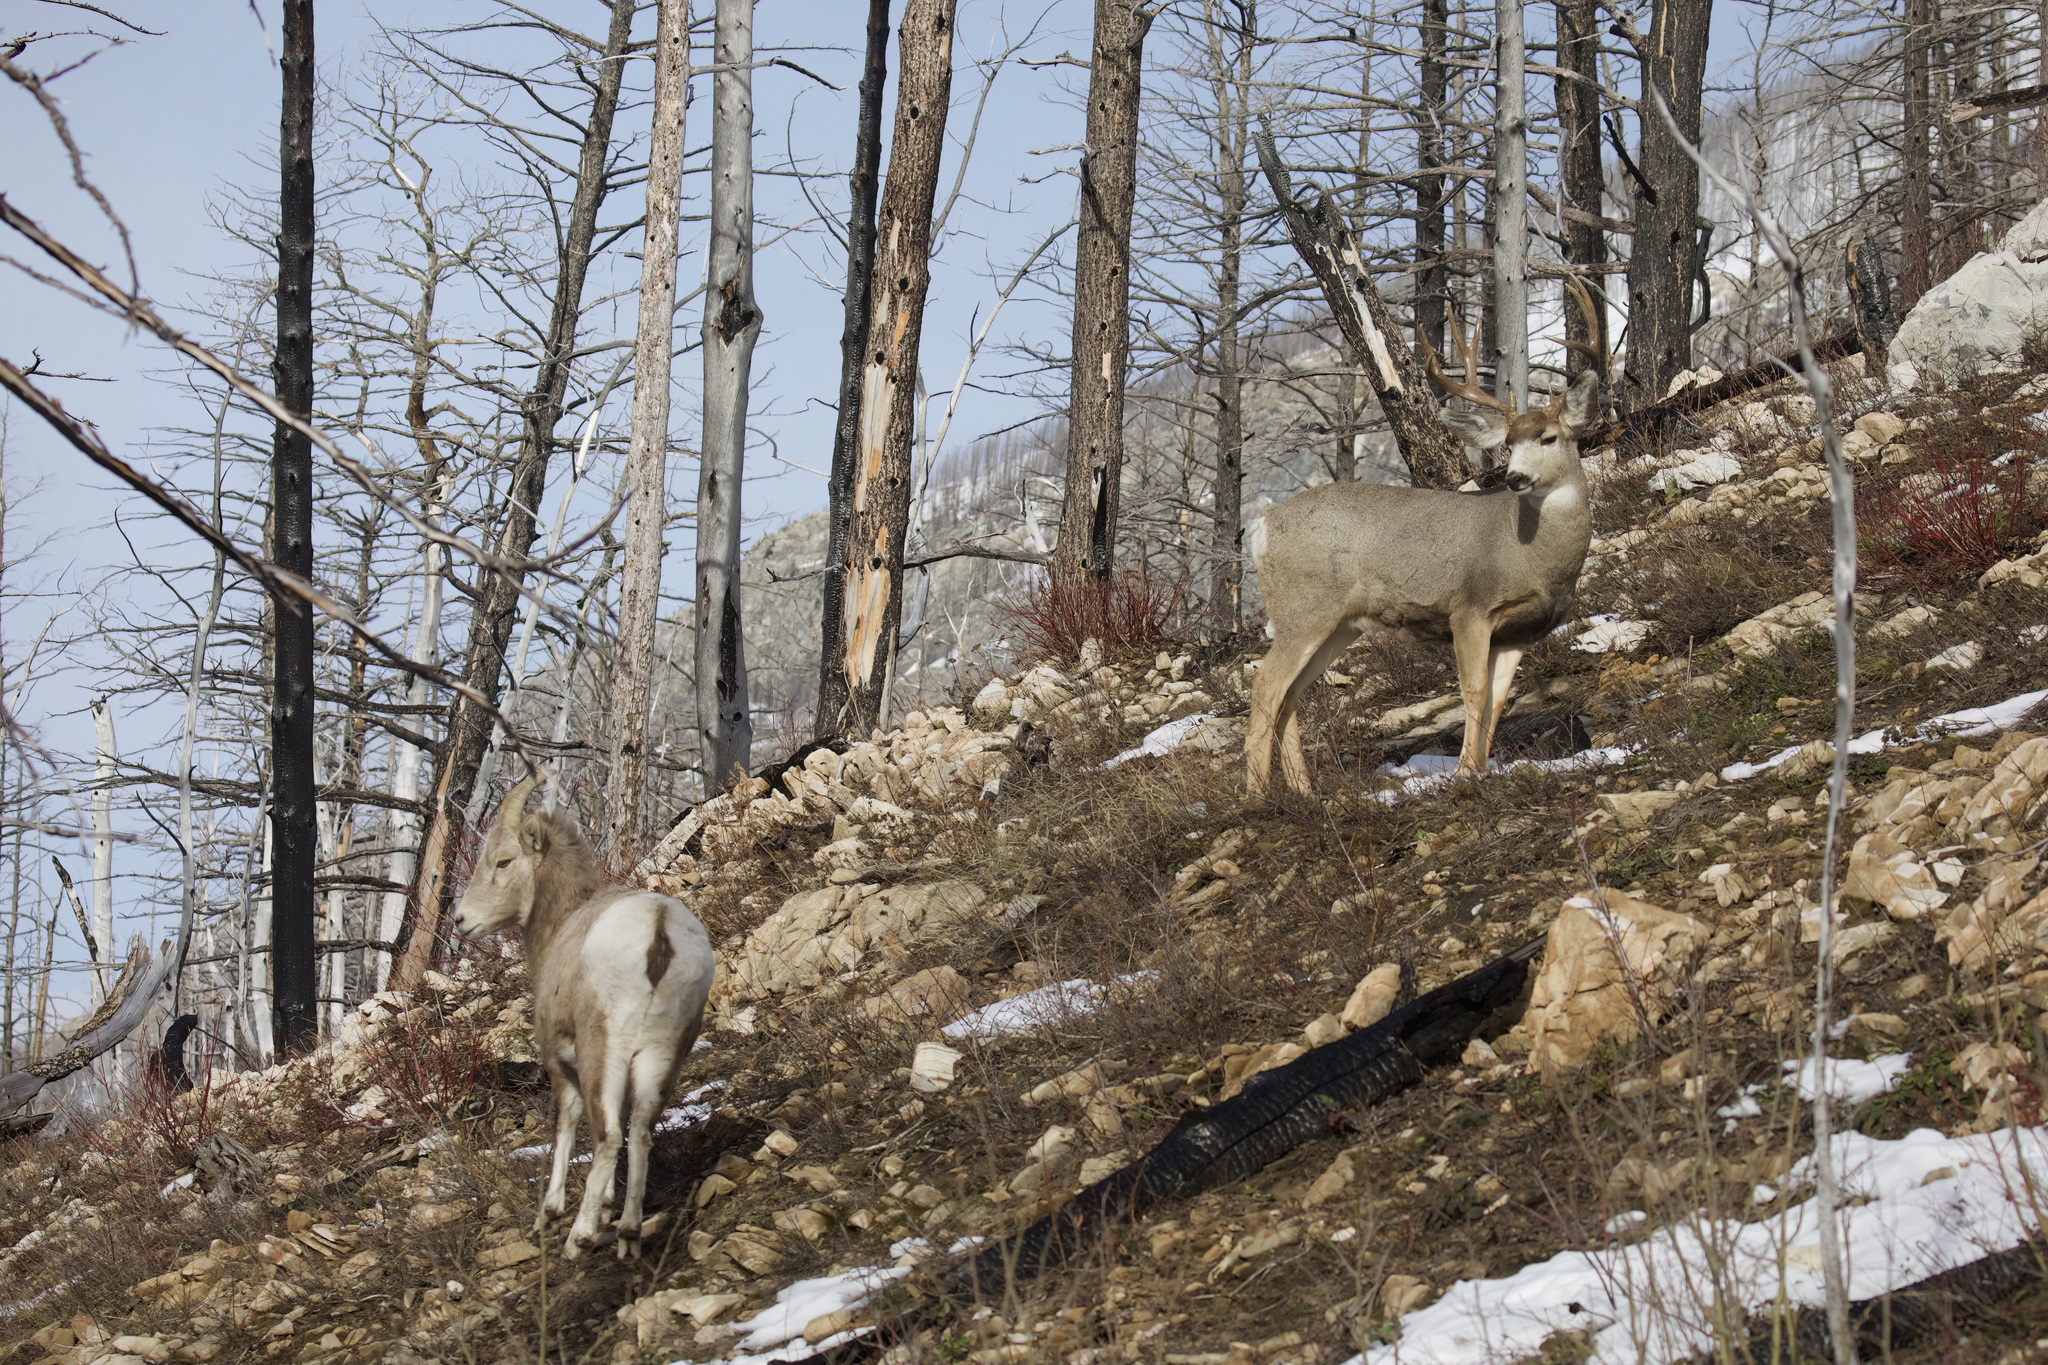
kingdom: Animalia
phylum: Chordata
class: Mammalia
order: Artiodactyla
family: Bovidae
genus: Ovis
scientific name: Ovis canadensis
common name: Bighorn sheep
